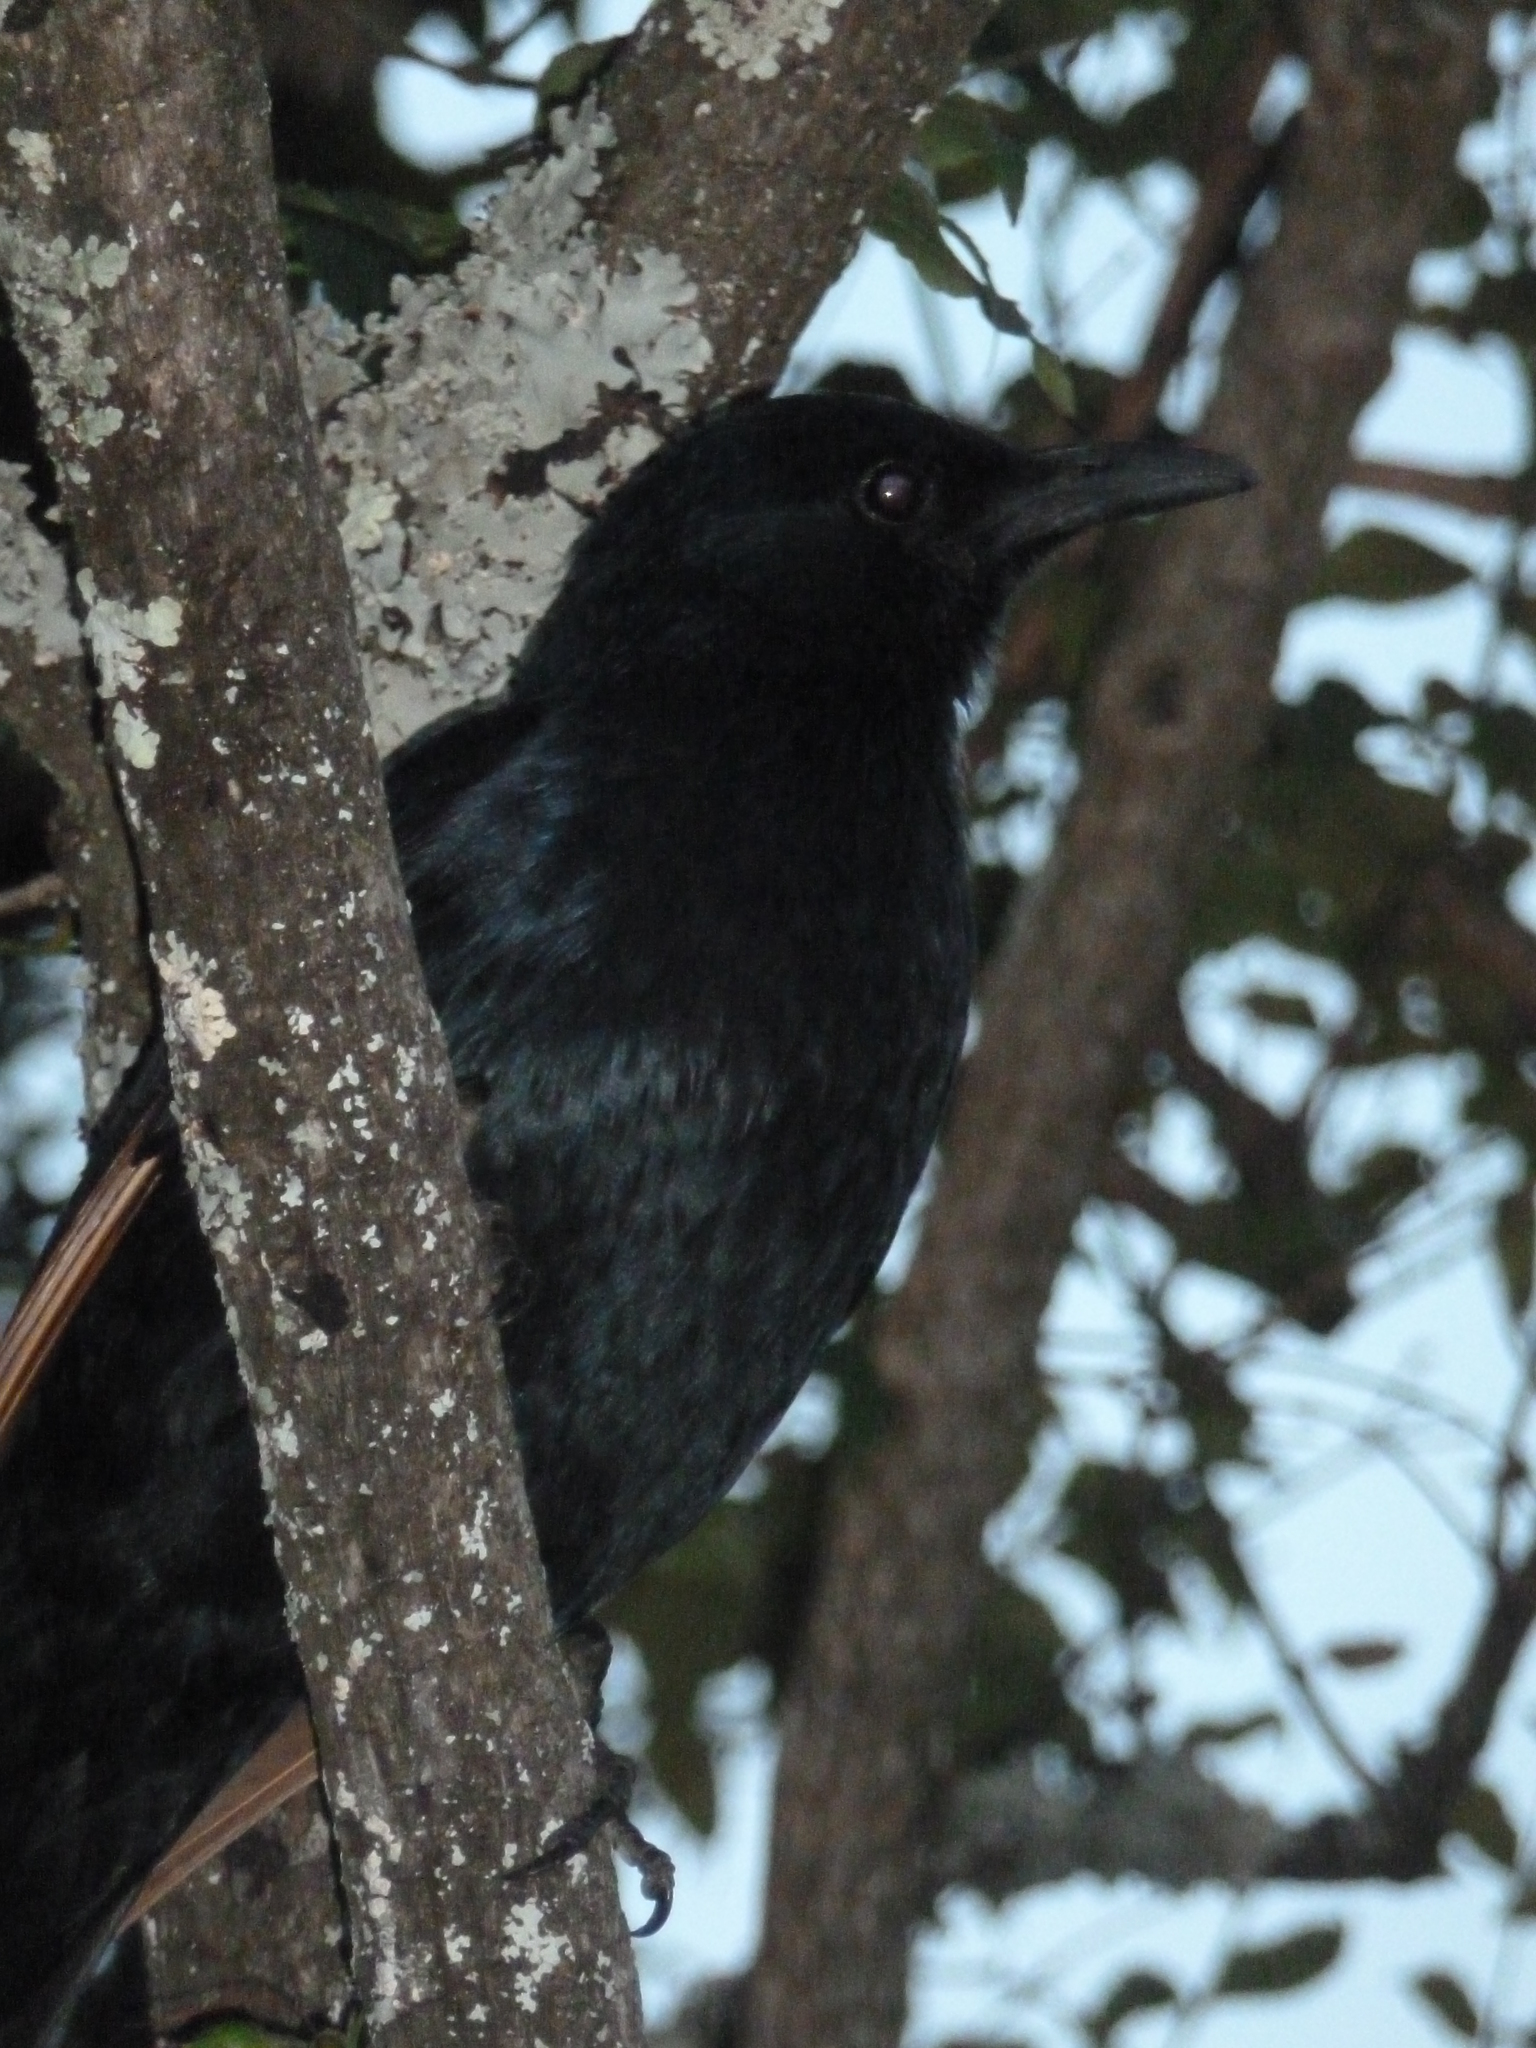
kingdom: Animalia
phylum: Chordata
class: Aves
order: Passeriformes
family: Sturnidae
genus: Onychognathus
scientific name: Onychognathus morio
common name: Red-winged starling
